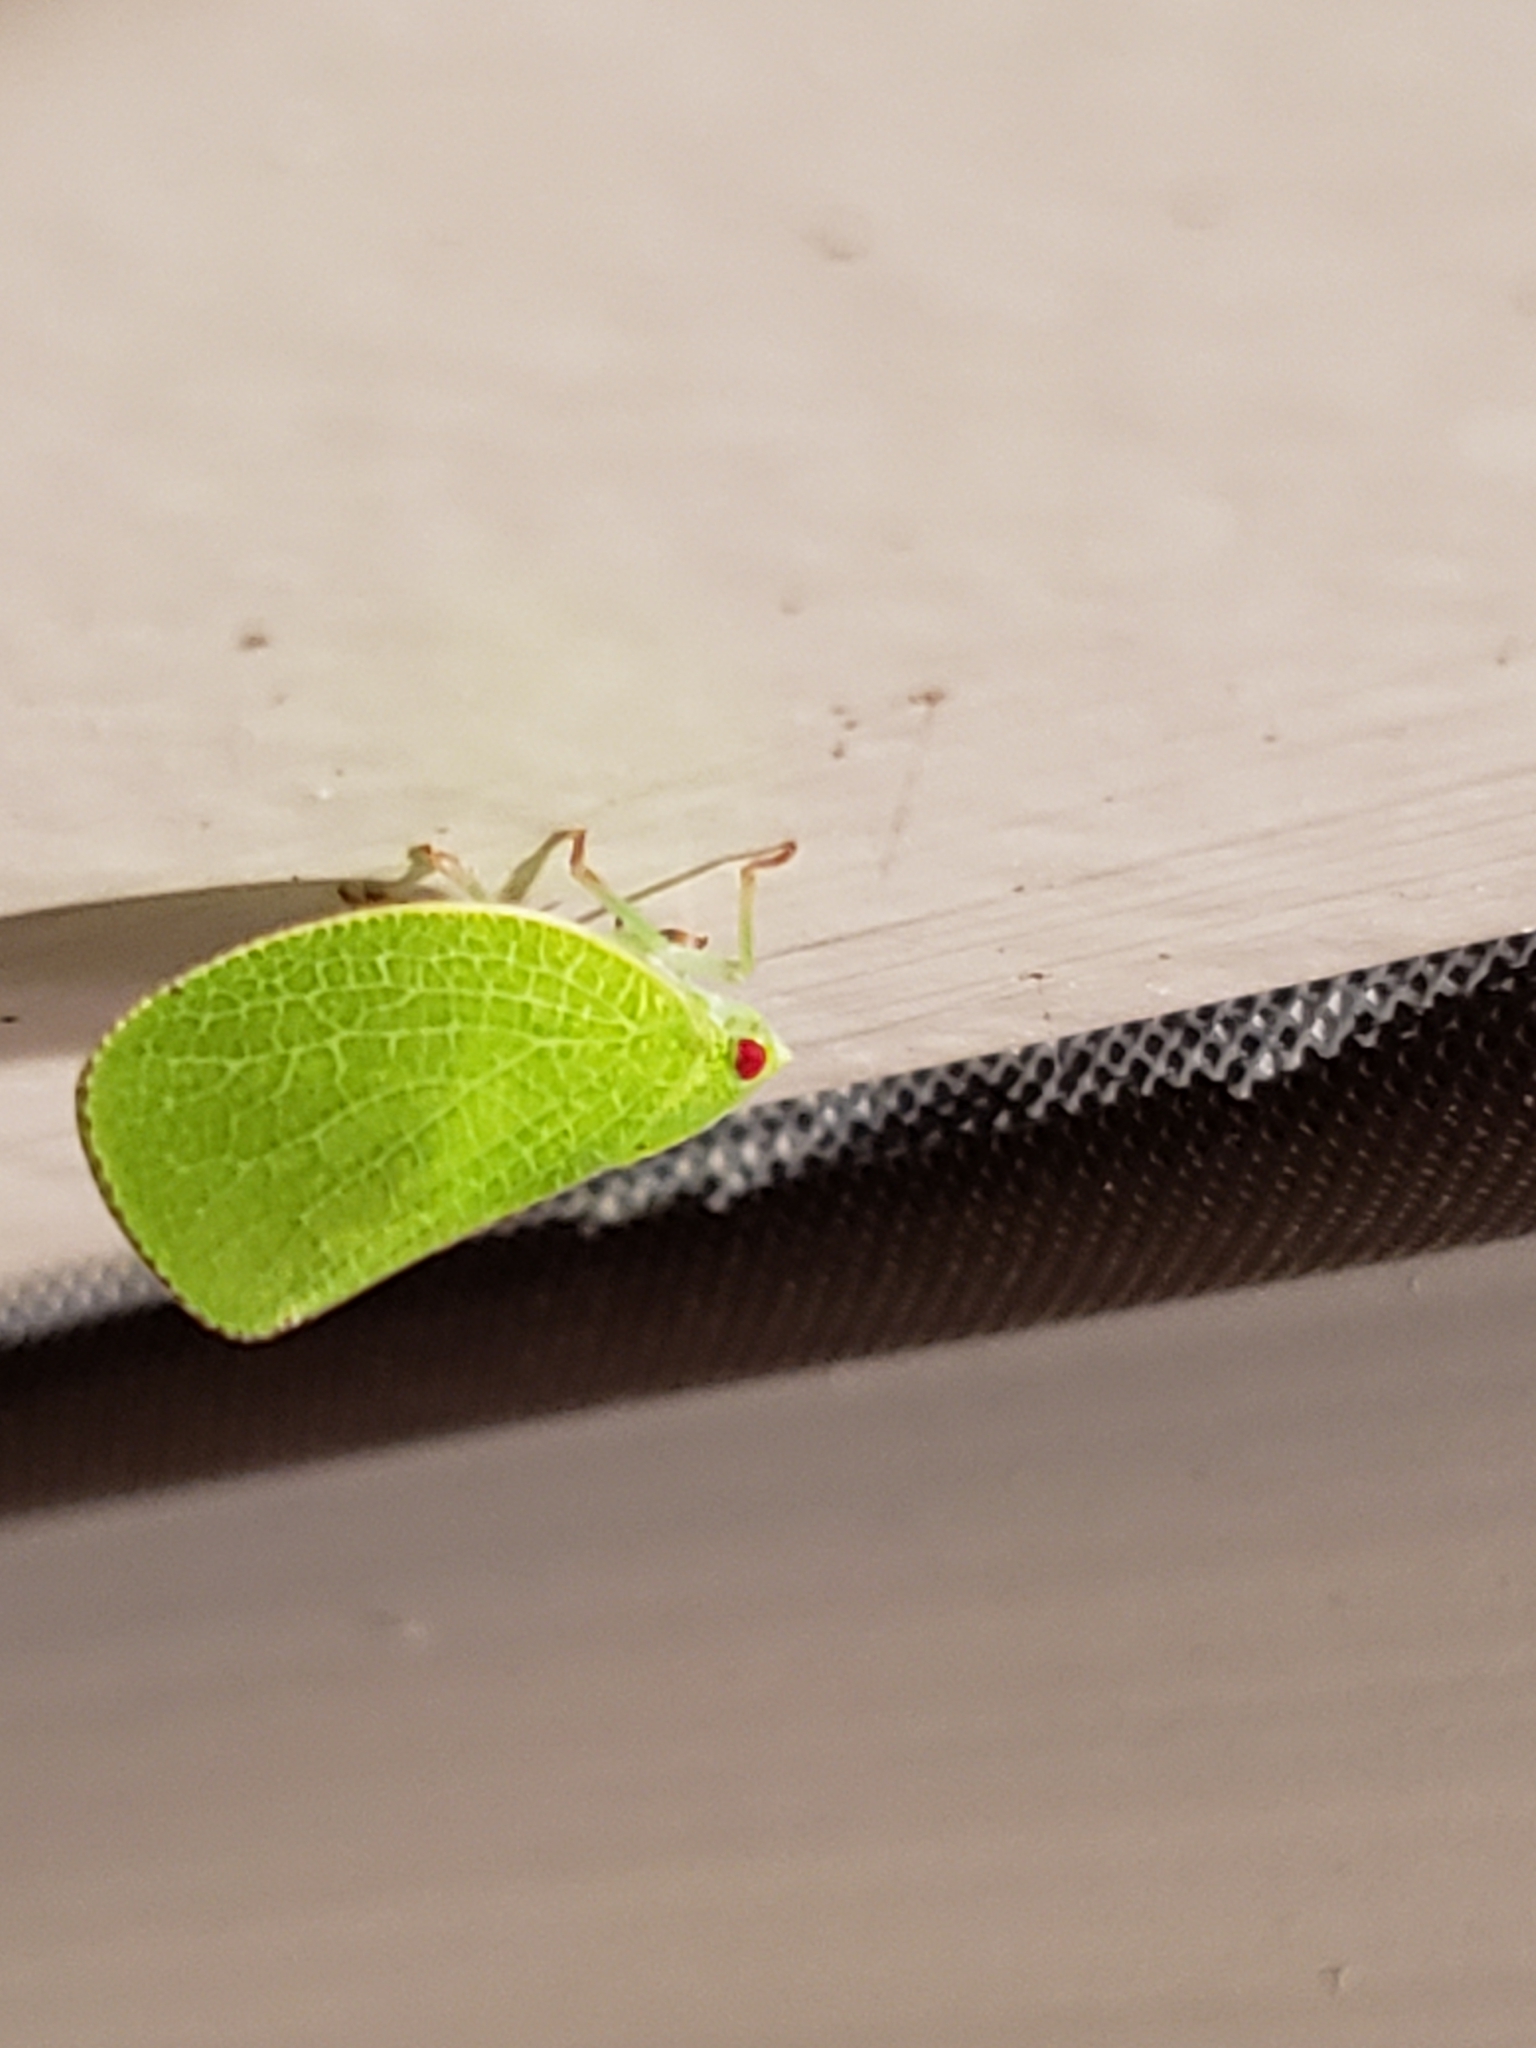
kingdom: Animalia
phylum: Arthropoda
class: Insecta
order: Hemiptera
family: Acanaloniidae
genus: Acanalonia
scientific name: Acanalonia conica
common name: Green cone-headed planthopper
